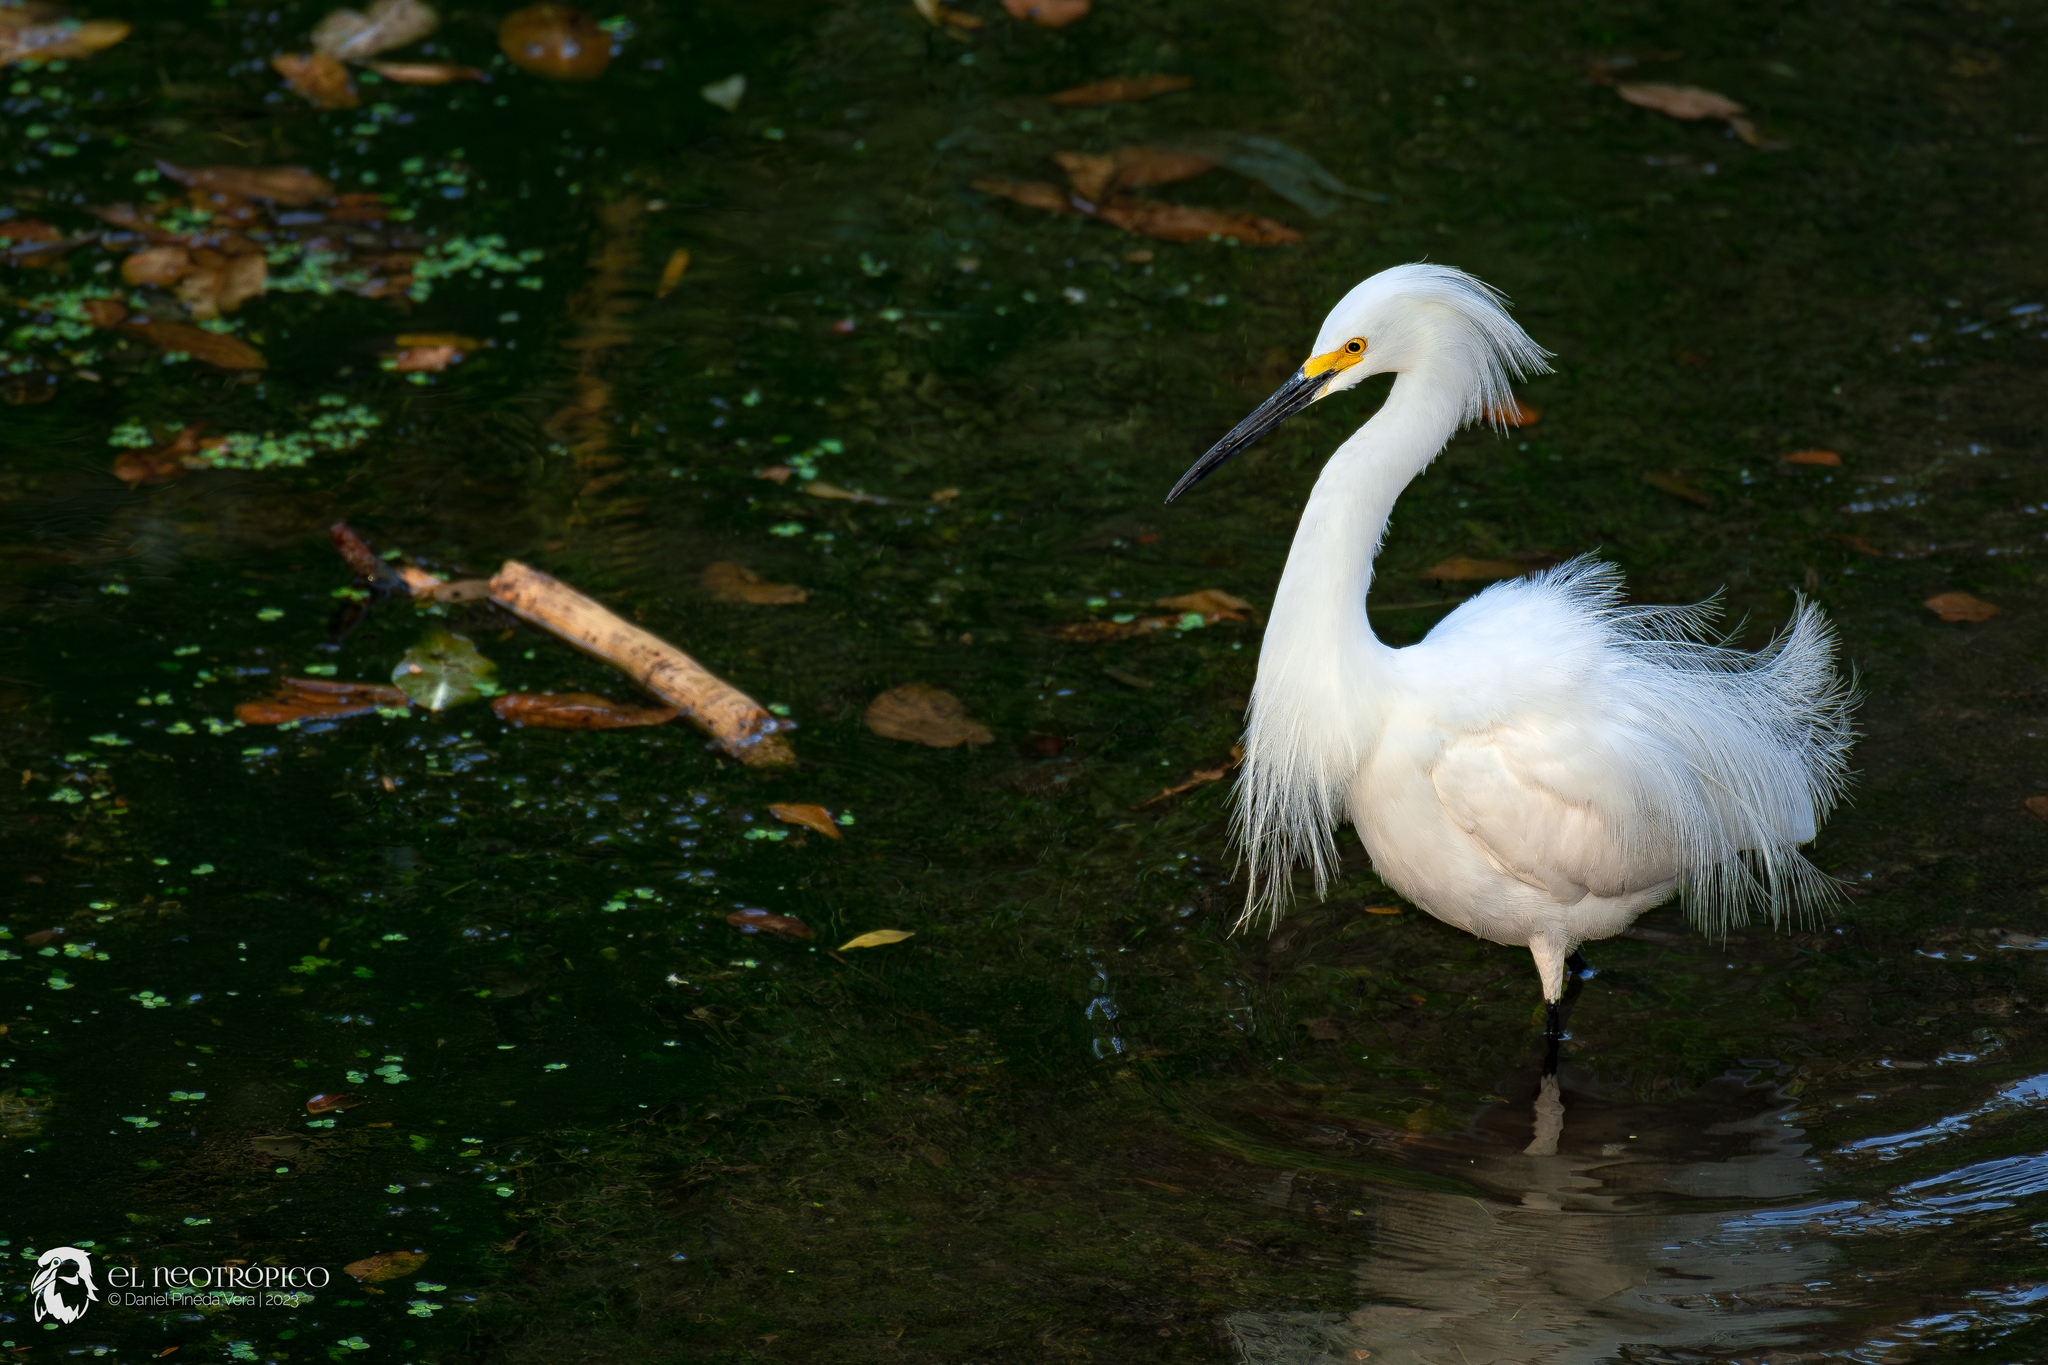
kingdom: Animalia
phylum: Chordata
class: Aves
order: Pelecaniformes
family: Ardeidae
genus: Egretta
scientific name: Egretta thula
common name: Snowy egret
